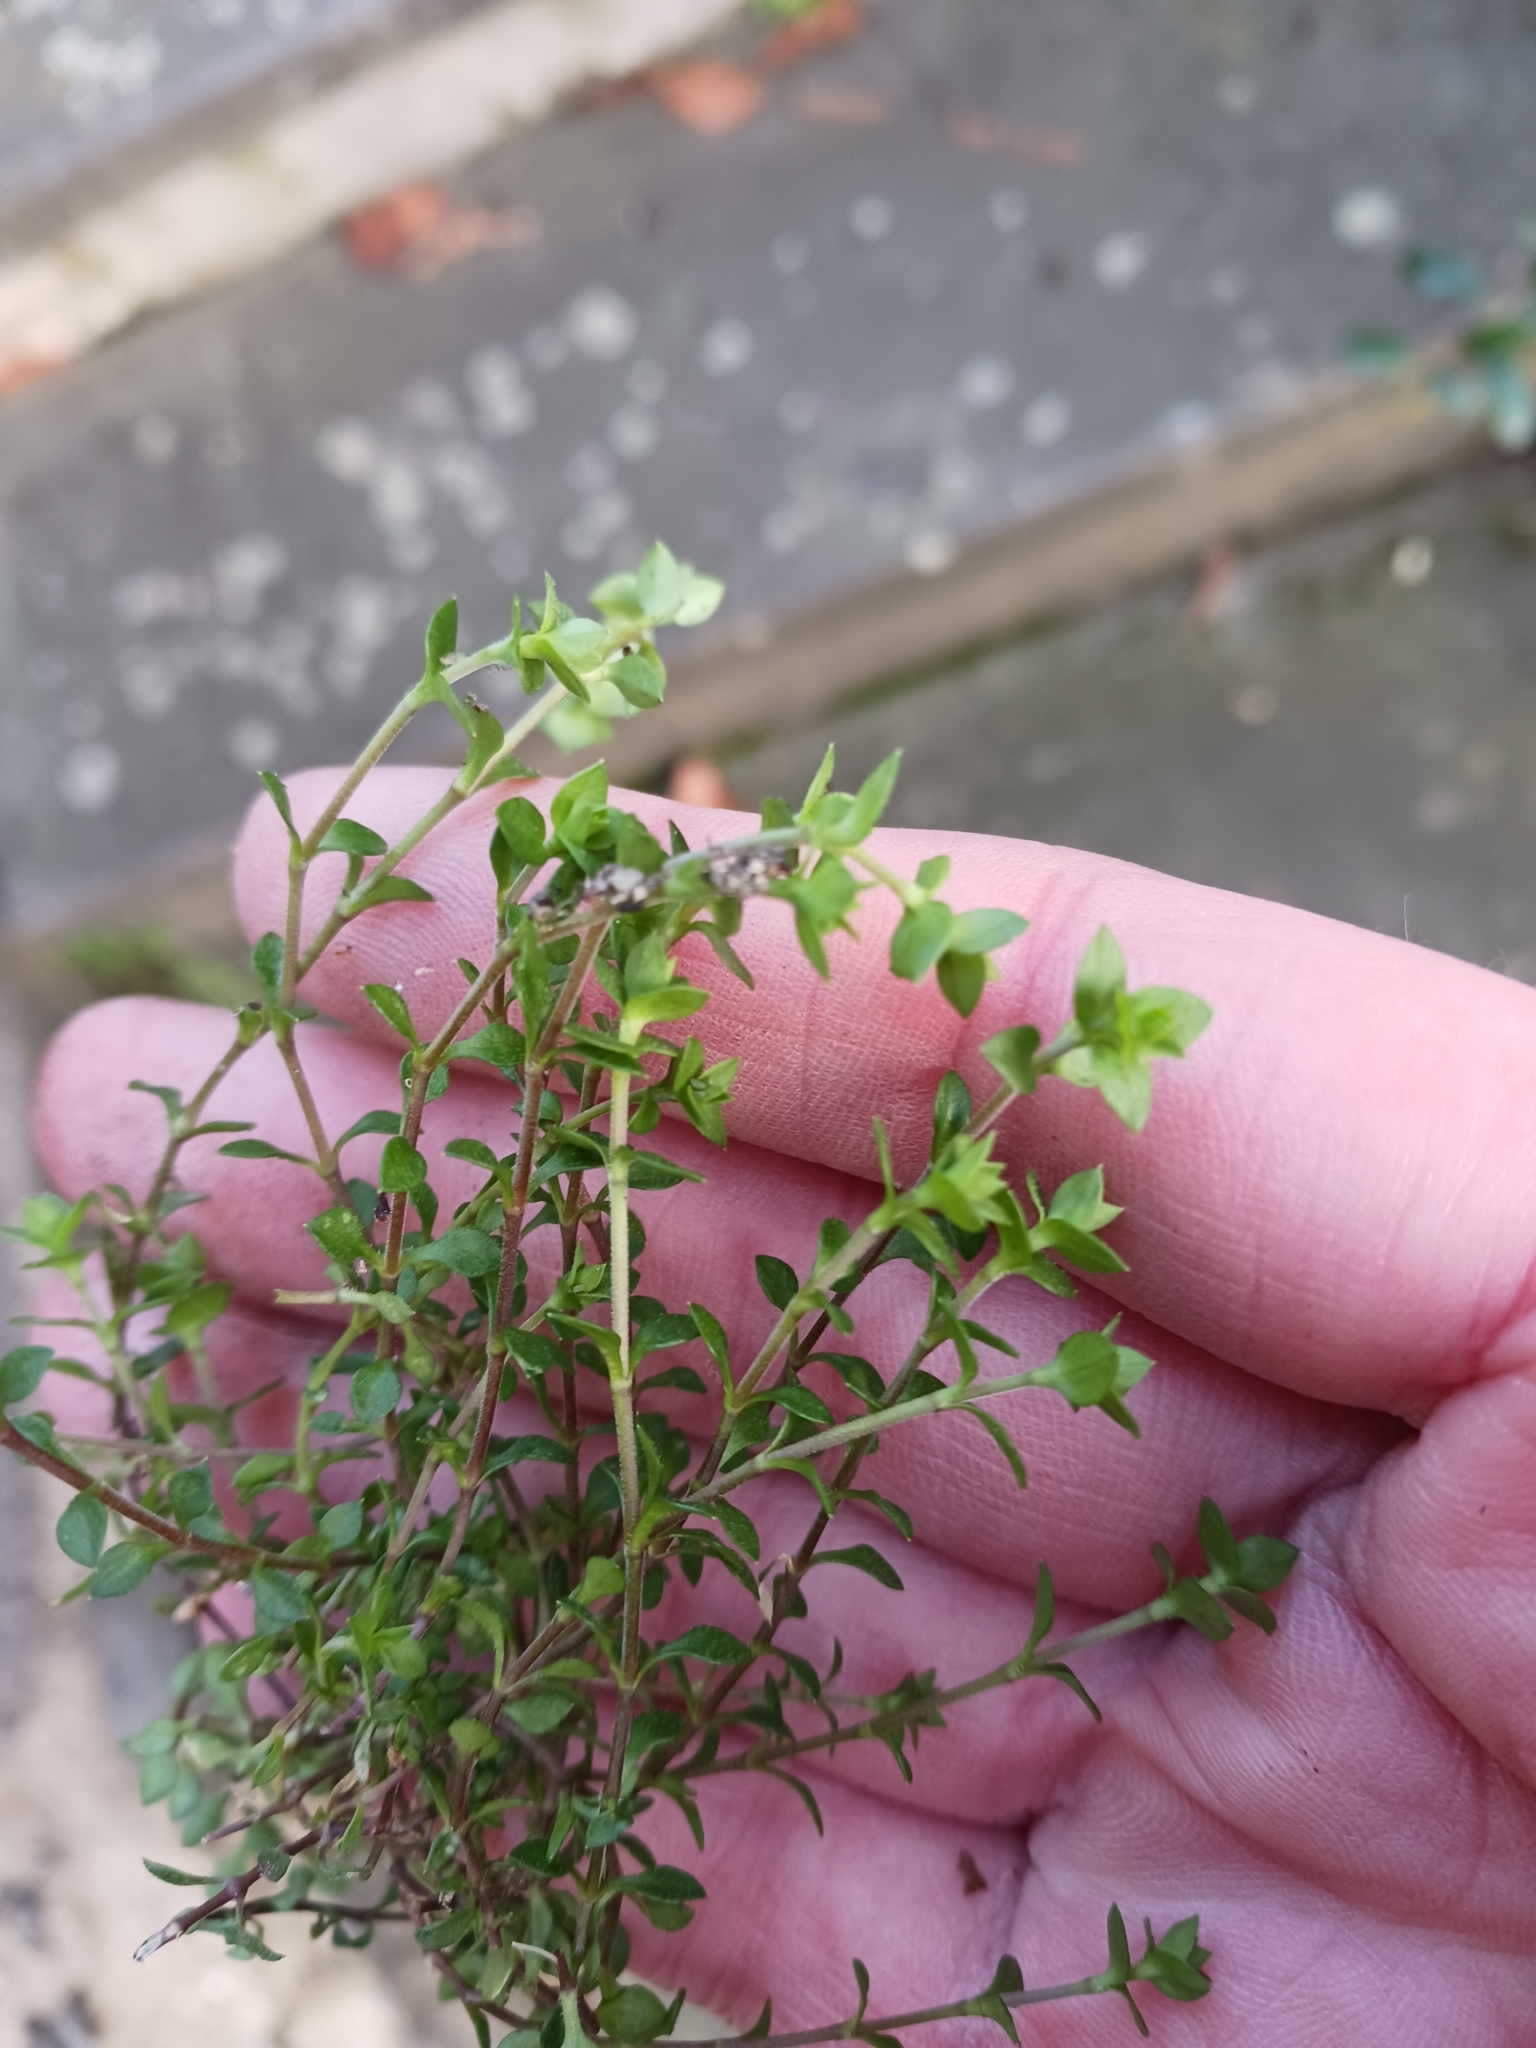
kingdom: Plantae
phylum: Tracheophyta
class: Magnoliopsida
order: Caryophyllales
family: Caryophyllaceae
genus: Arenaria
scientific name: Arenaria serpyllifolia
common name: Thyme-leaved sandwort
